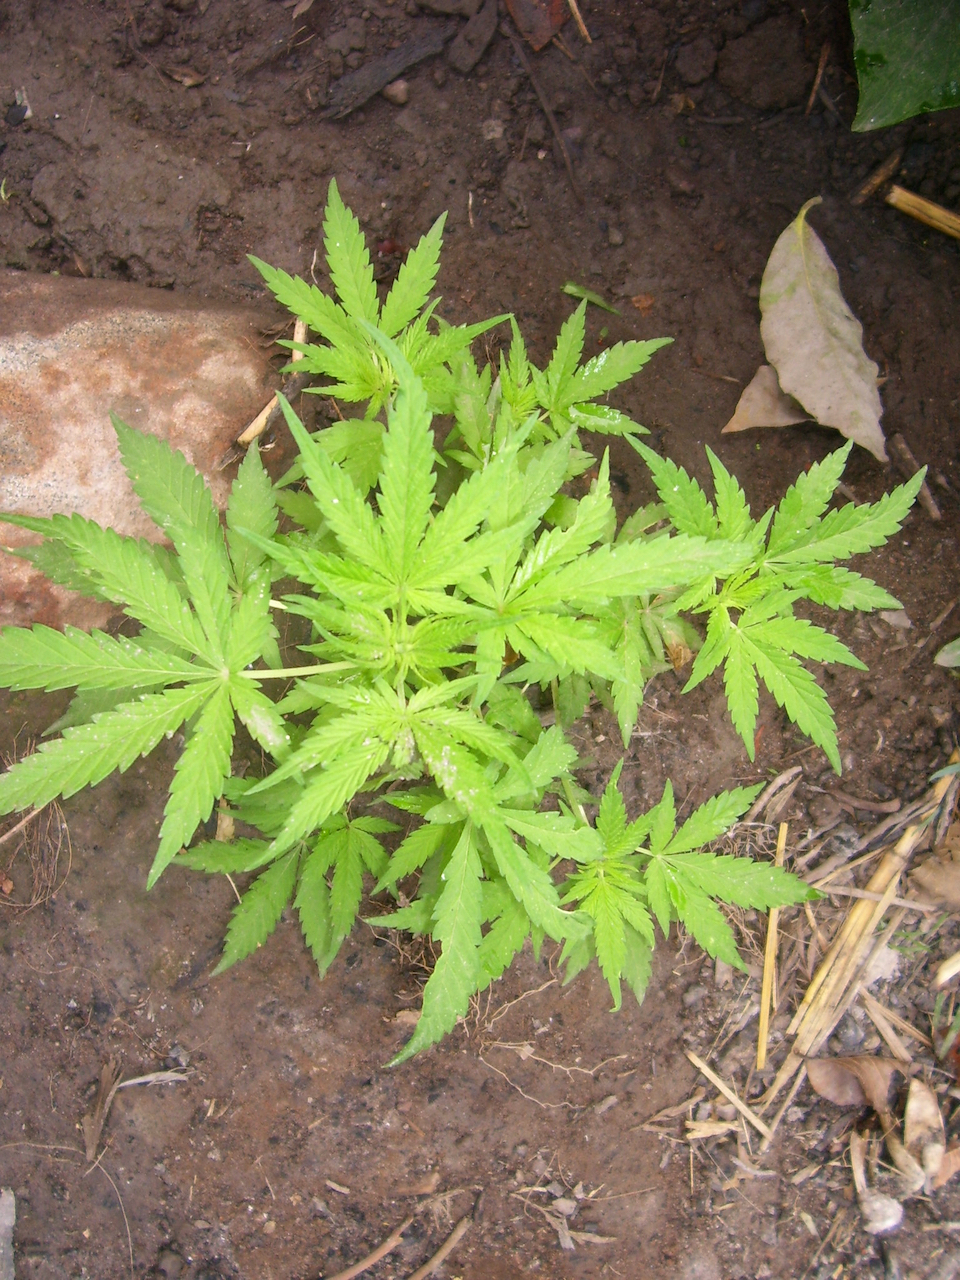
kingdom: Plantae
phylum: Tracheophyta
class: Magnoliopsida
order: Rosales
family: Cannabaceae
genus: Cannabis
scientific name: Cannabis sativa
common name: Hemp
